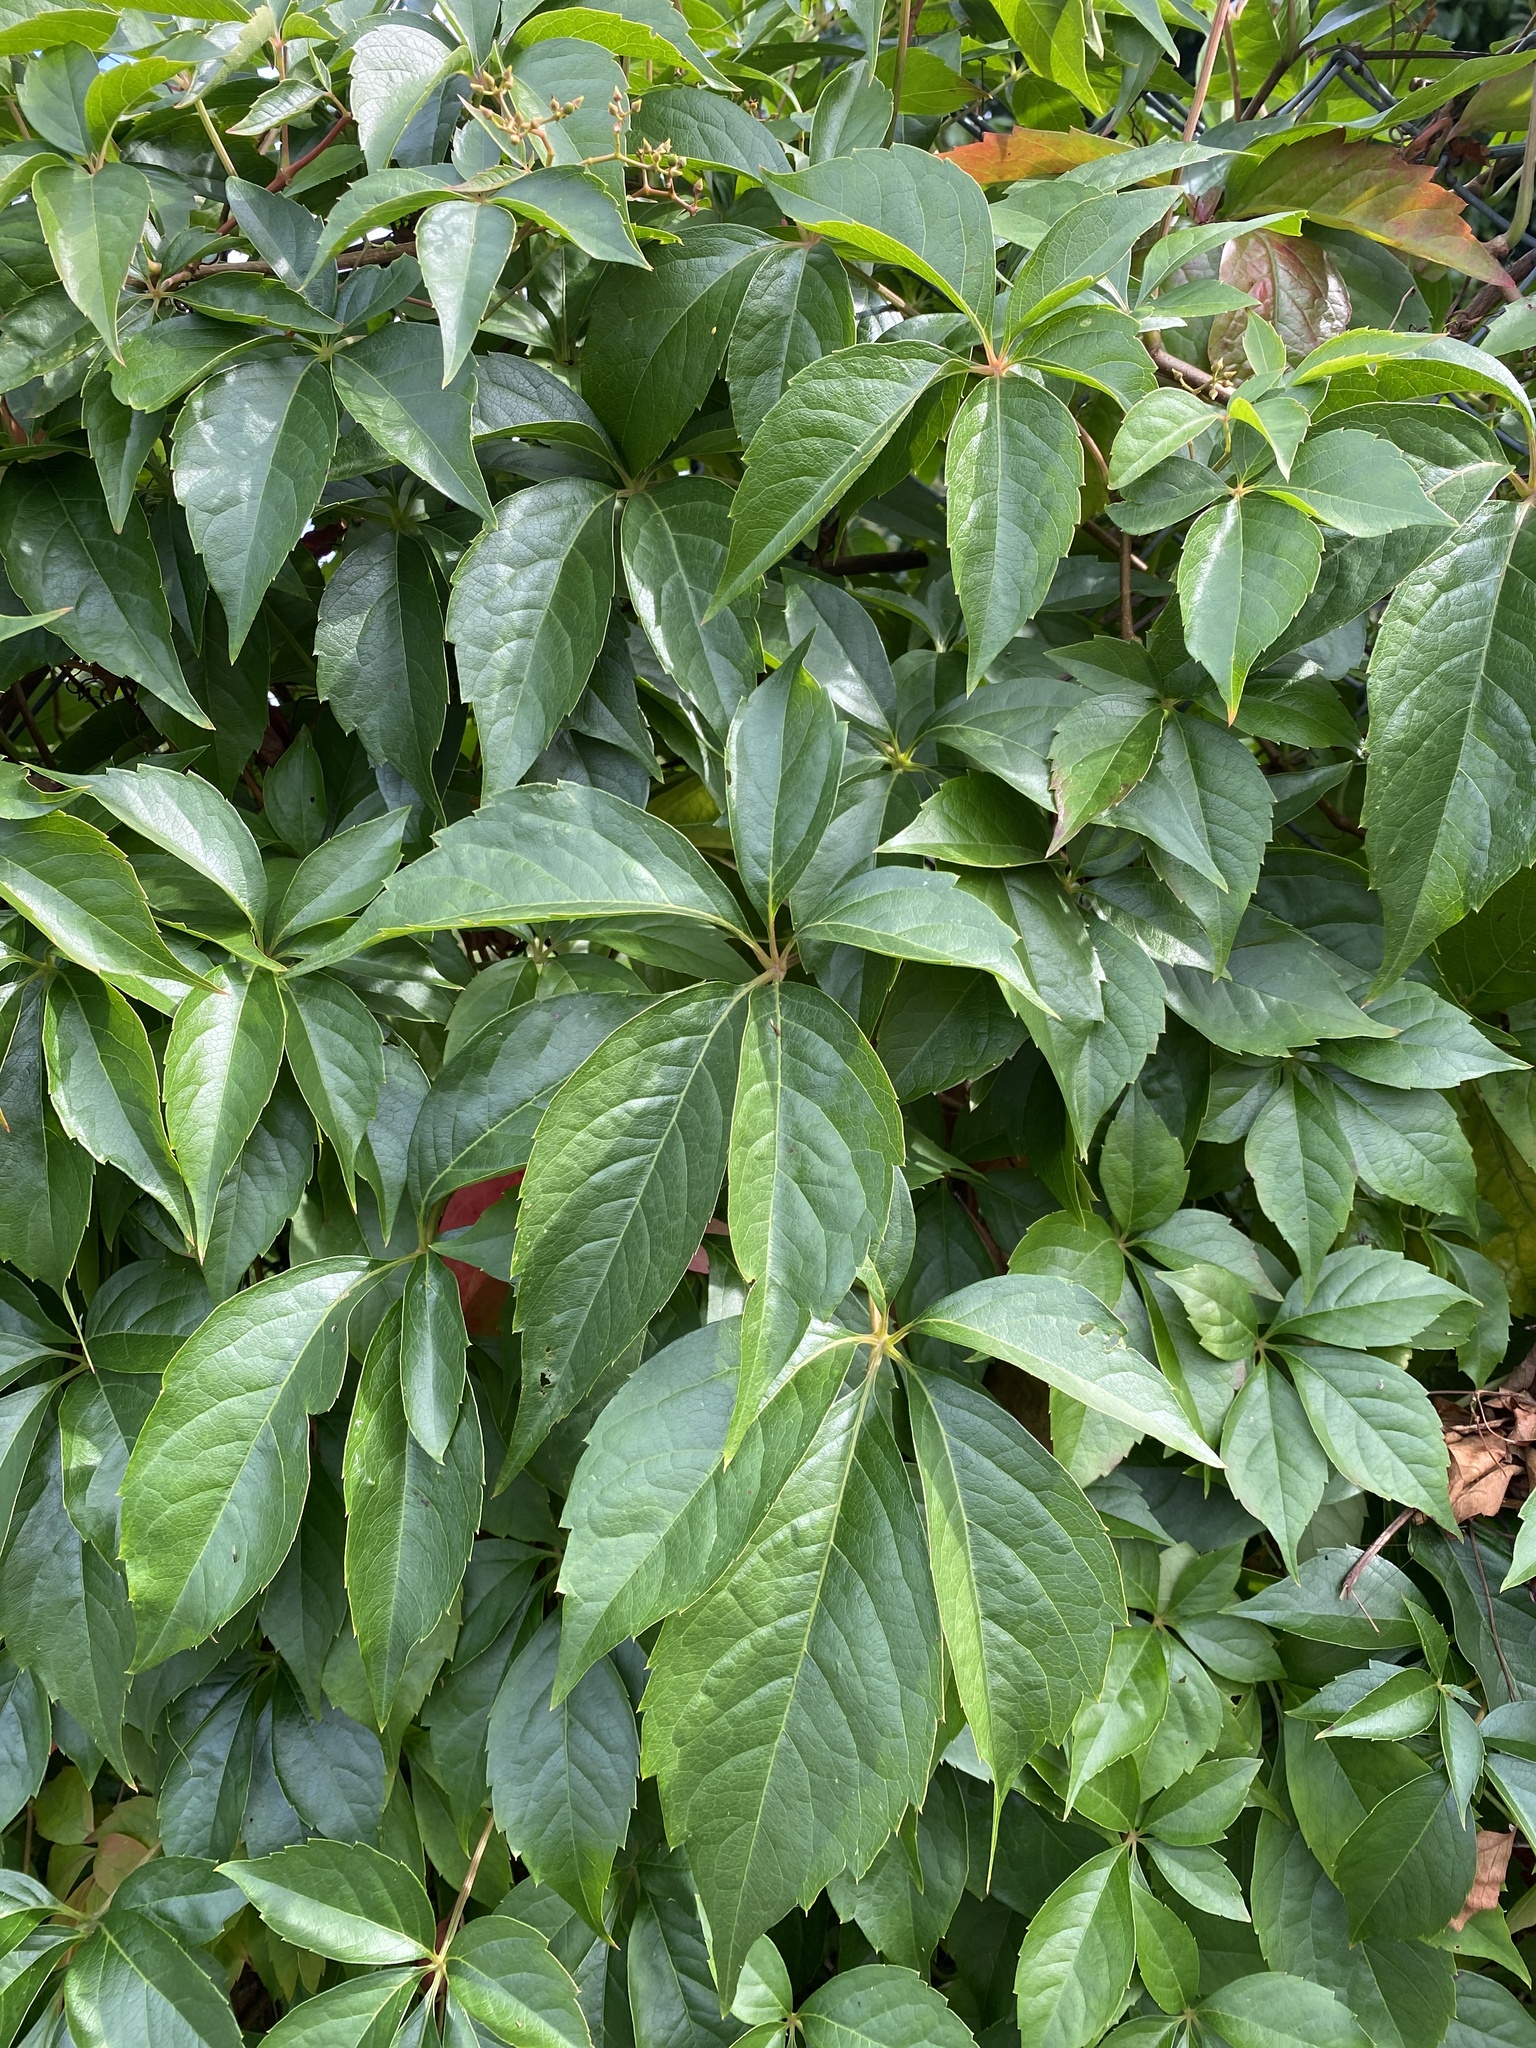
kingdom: Plantae
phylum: Tracheophyta
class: Magnoliopsida
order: Vitales
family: Vitaceae
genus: Parthenocissus
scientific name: Parthenocissus quinquefolia
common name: Virginia-creeper
